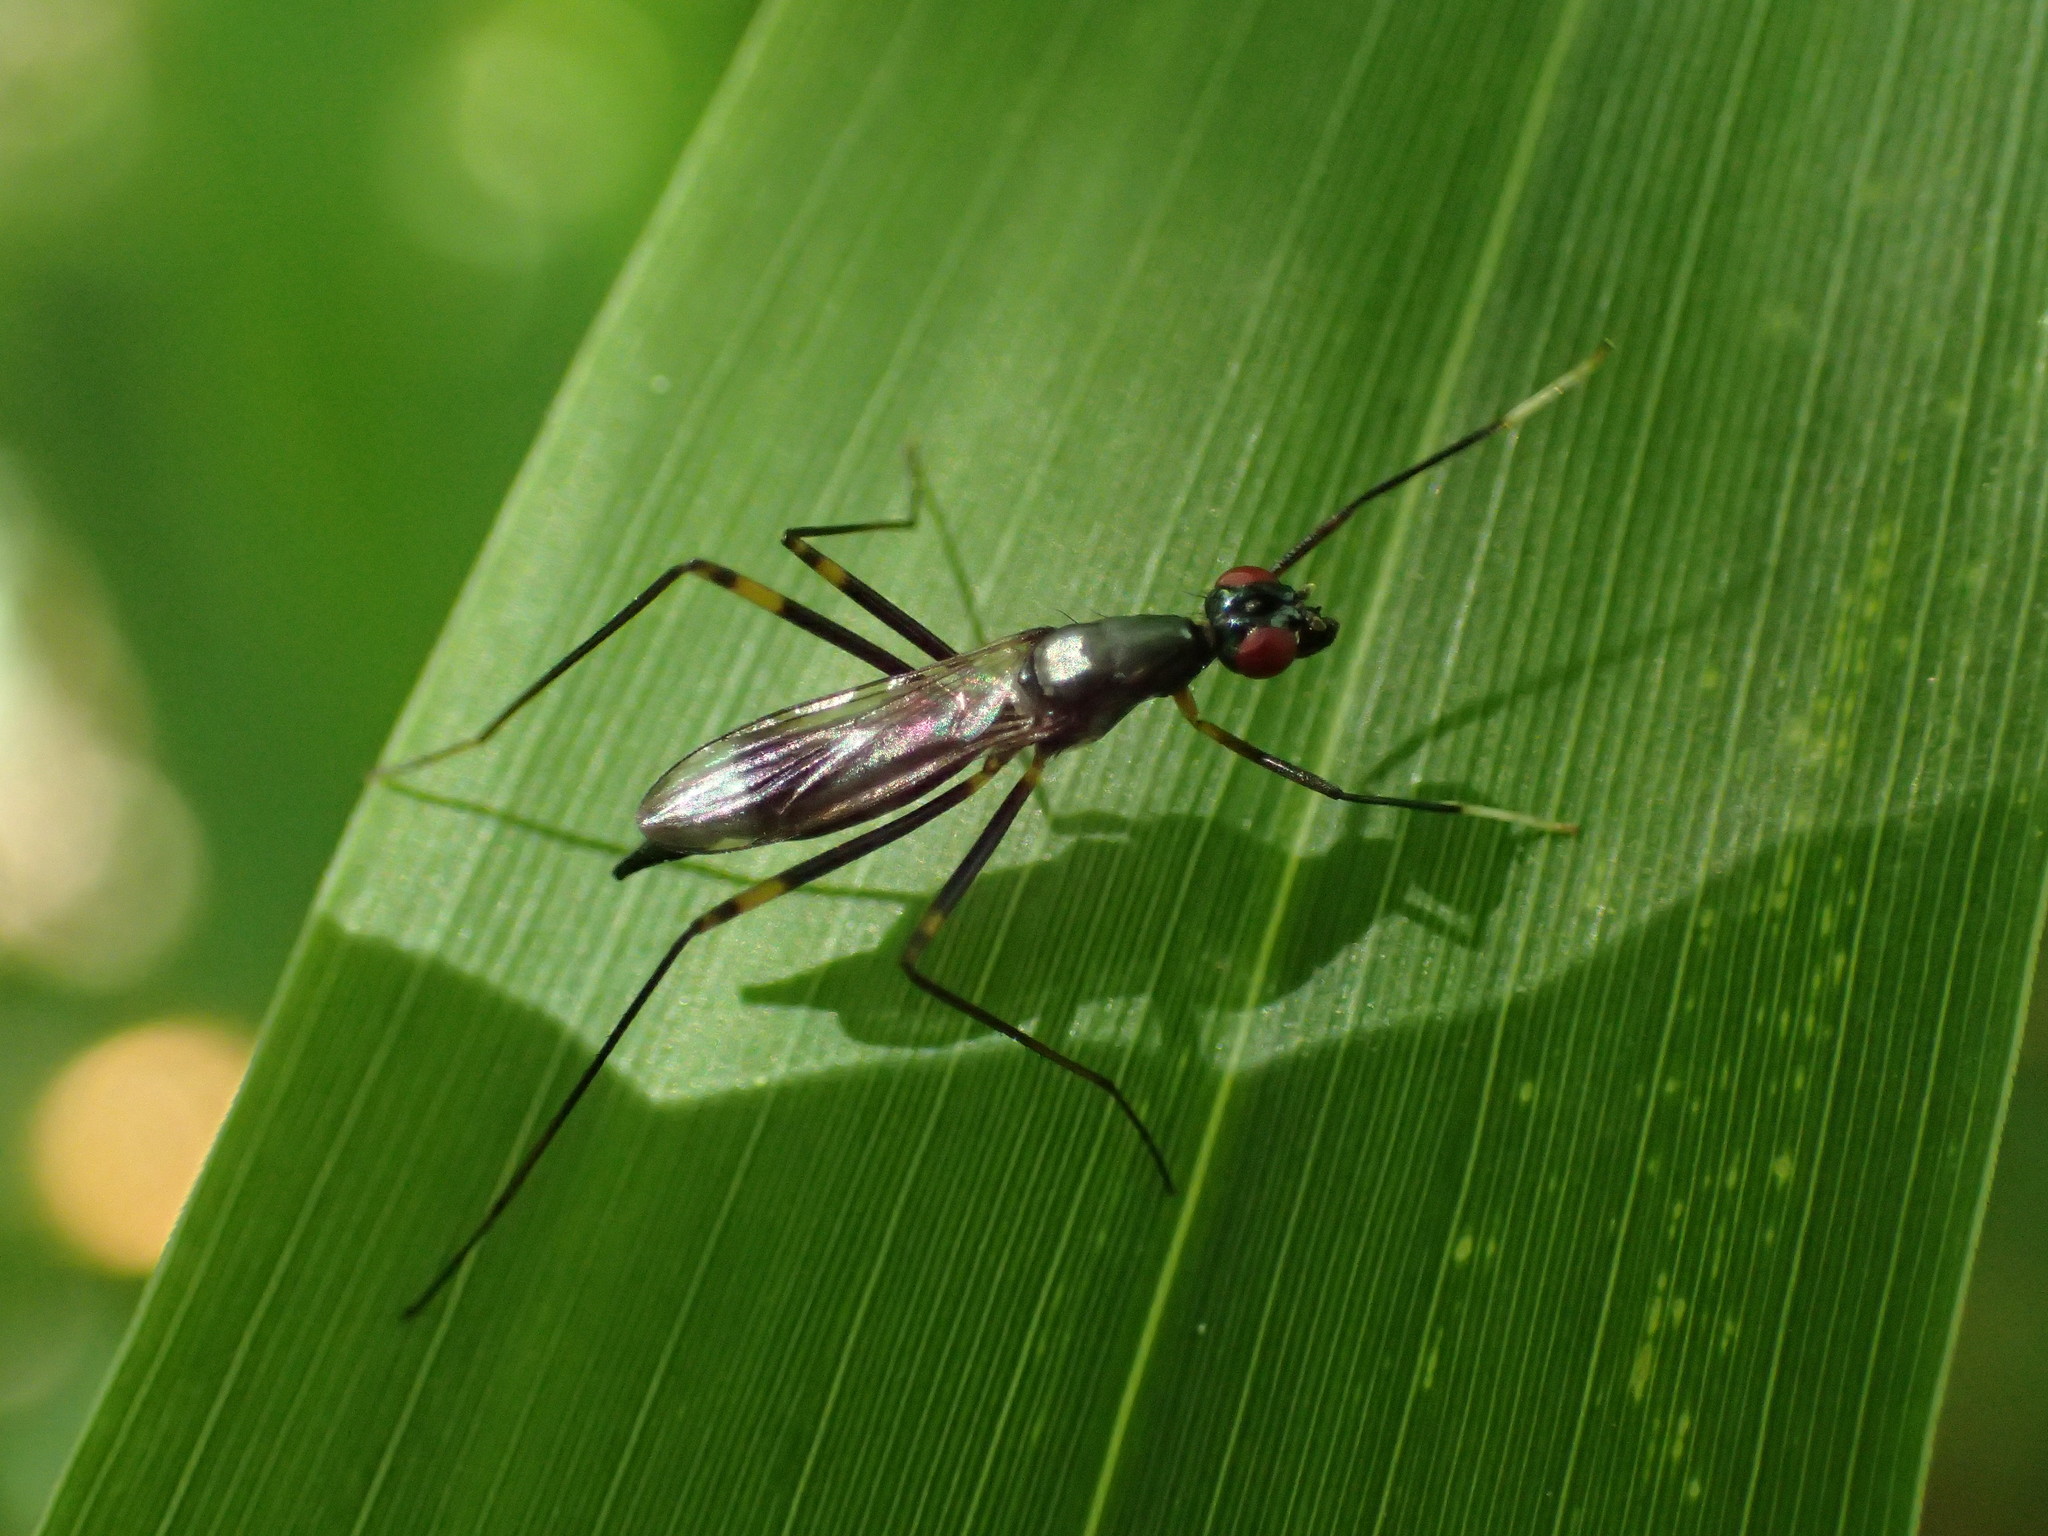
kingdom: Animalia
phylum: Arthropoda
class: Insecta
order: Diptera
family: Micropezidae
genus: Rainieria
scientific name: Rainieria antennaepes
